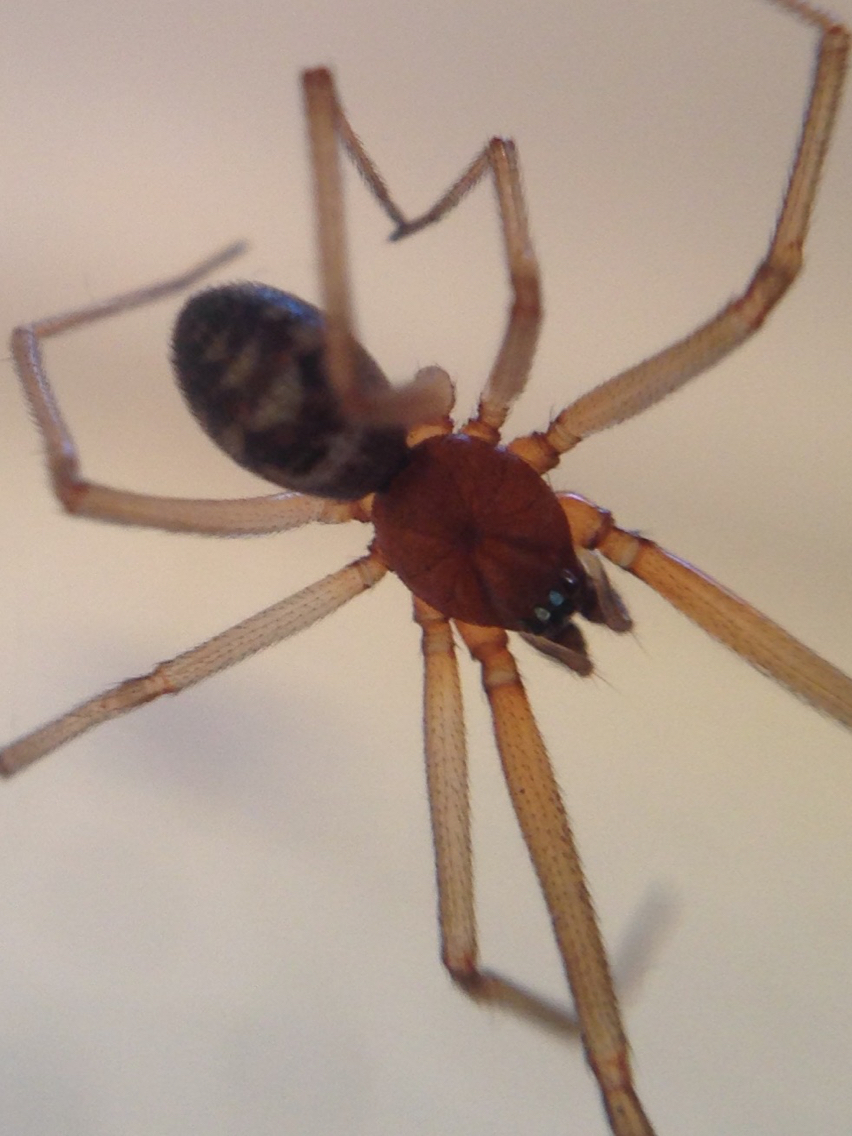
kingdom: Animalia
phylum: Arthropoda
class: Arachnida
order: Araneae
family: Theridiidae
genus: Steatoda
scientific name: Steatoda grossa
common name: False black widow
